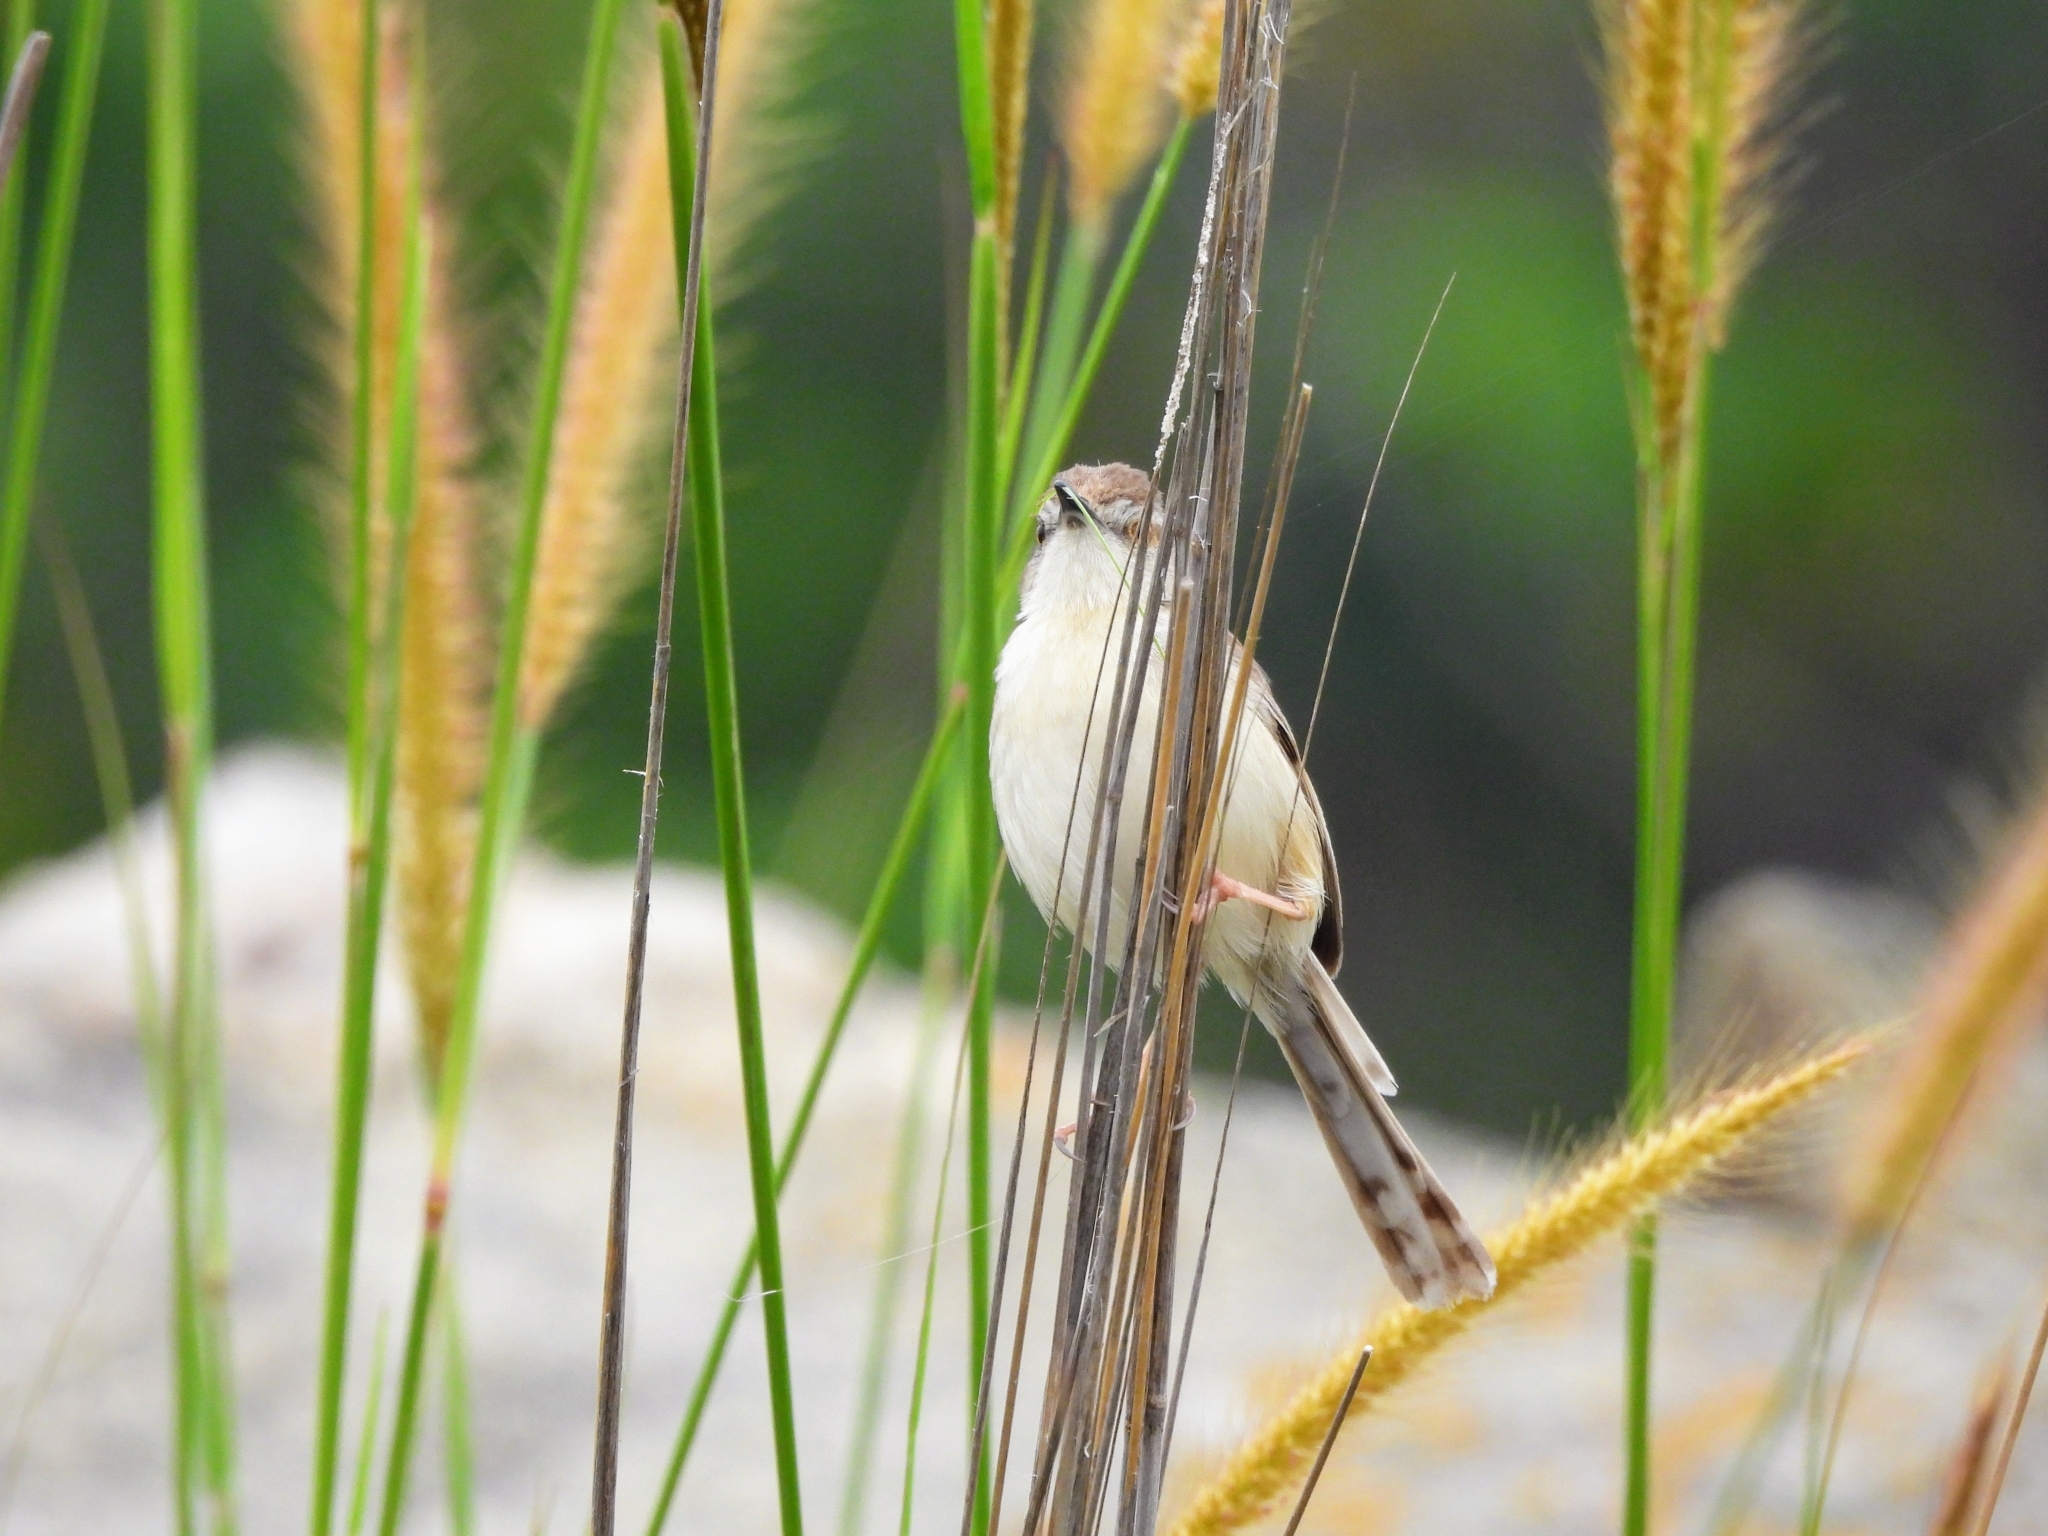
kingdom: Animalia
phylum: Chordata
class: Aves
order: Passeriformes
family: Cisticolidae
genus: Prinia
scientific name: Prinia inornata
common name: Plain prinia
